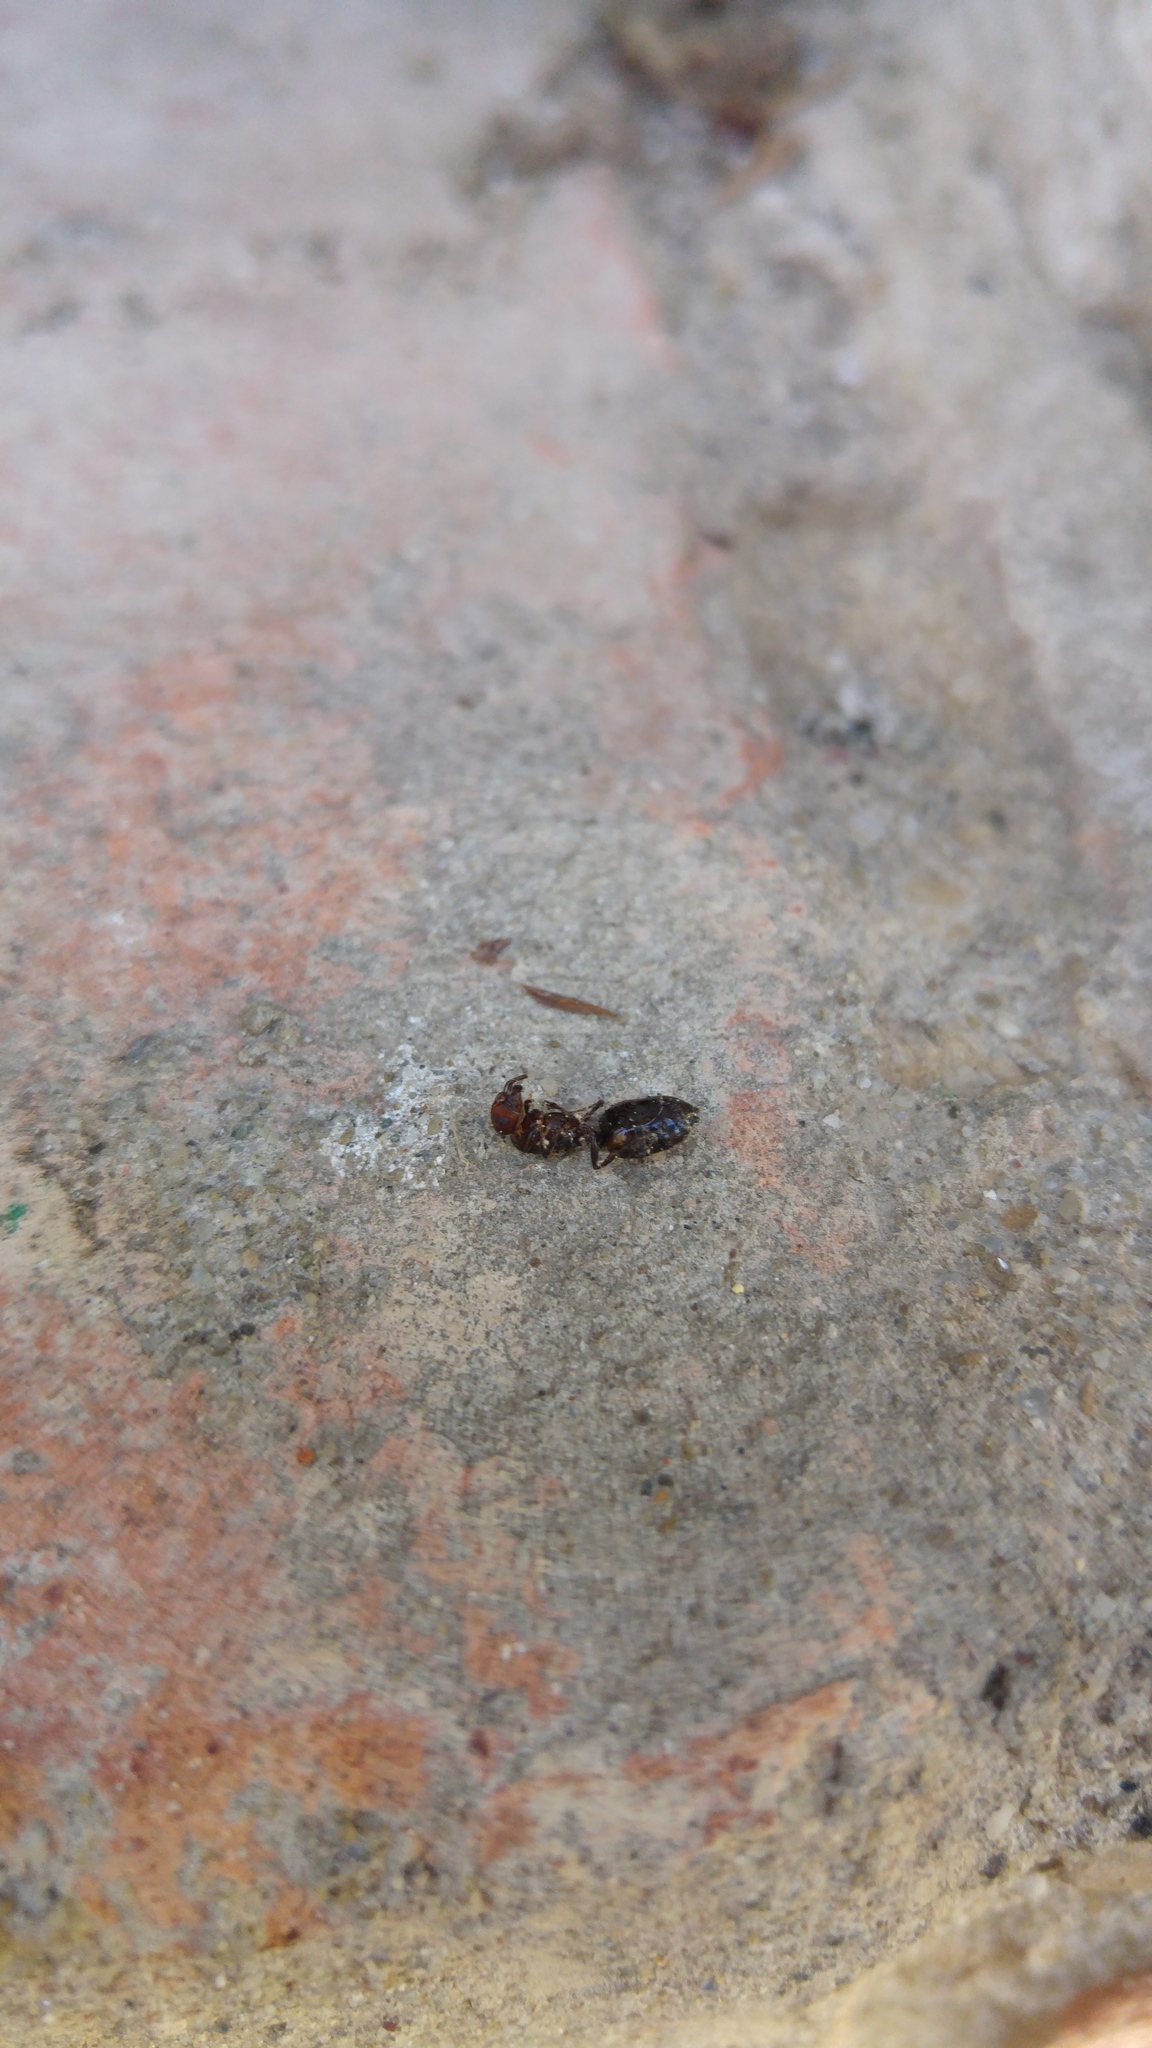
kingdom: Animalia
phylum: Arthropoda
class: Insecta
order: Hymenoptera
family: Formicidae
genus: Crematogaster
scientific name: Crematogaster scutellaris
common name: Fourmi du liège
